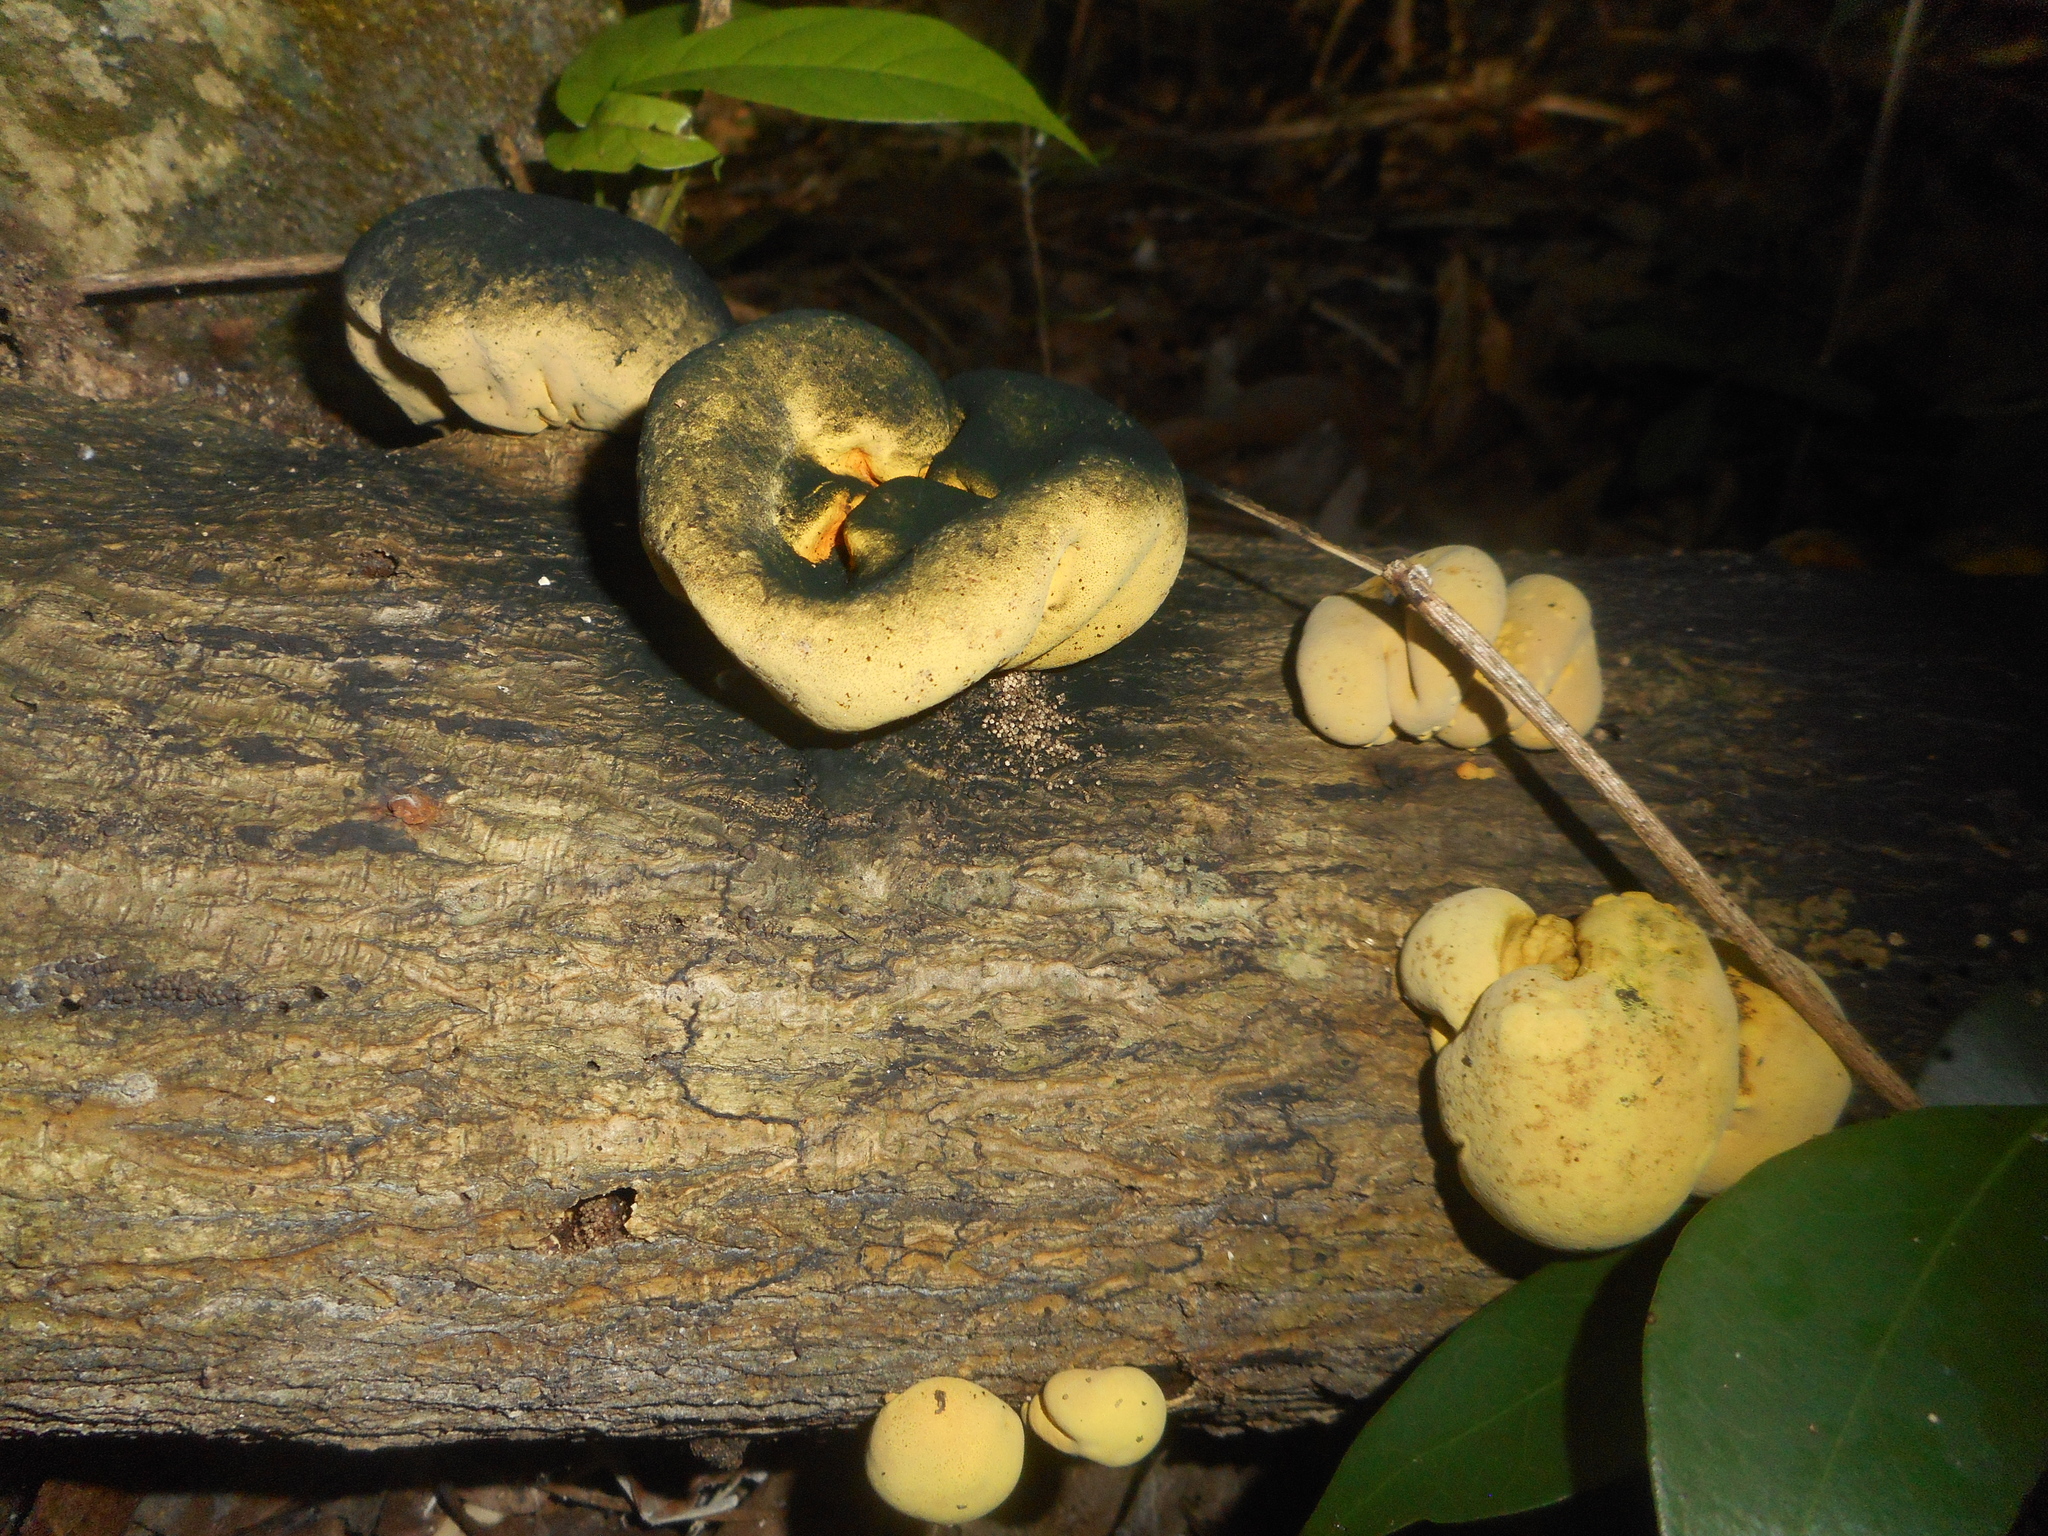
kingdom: Fungi
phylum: Ascomycota
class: Sordariomycetes
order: Xylariales
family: Hypoxylaceae
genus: Entonaema
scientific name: Entonaema liquescens
